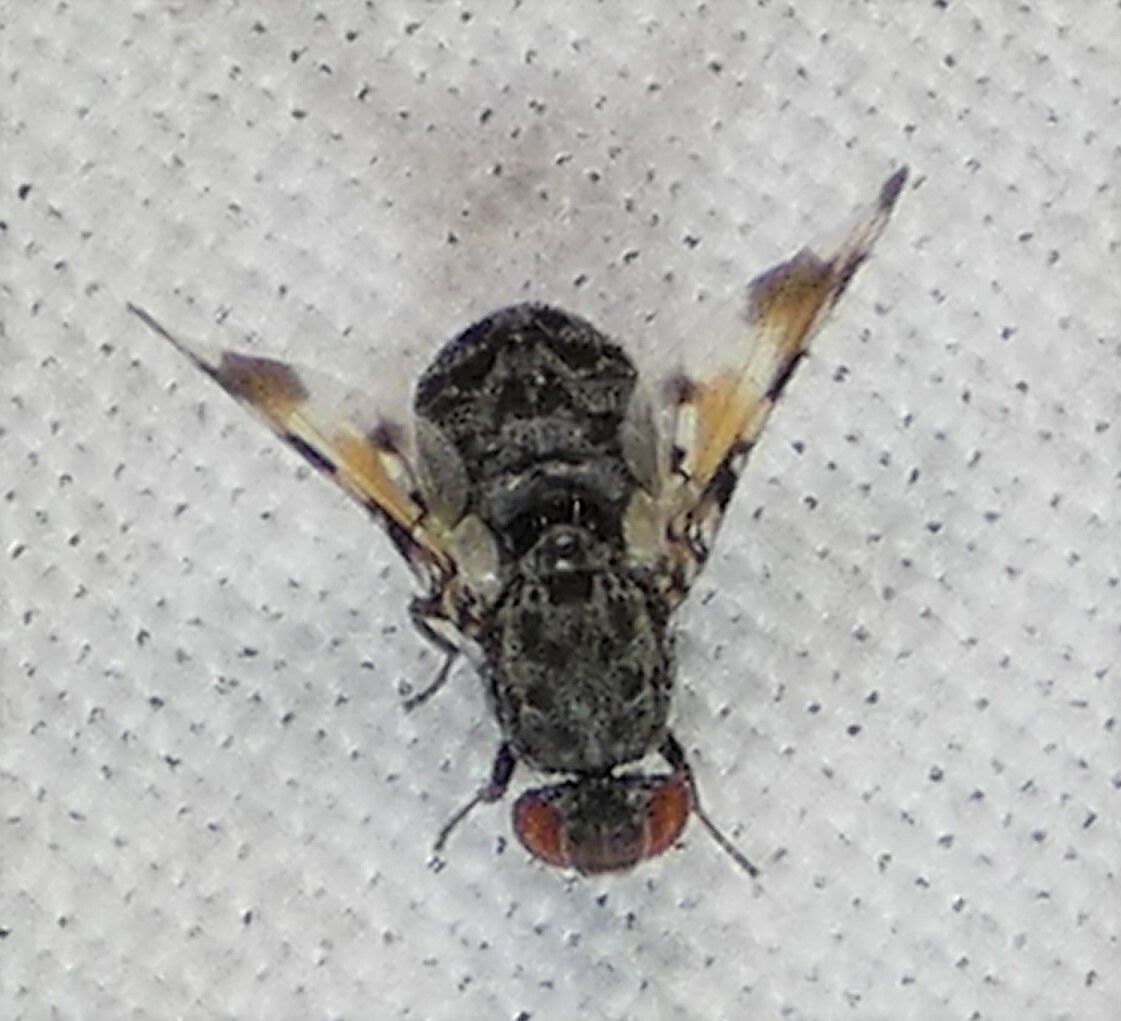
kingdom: Animalia
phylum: Arthropoda
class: Insecta
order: Diptera
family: Ulidiidae
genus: Pseudotephritis
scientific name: Pseudotephritis vau
